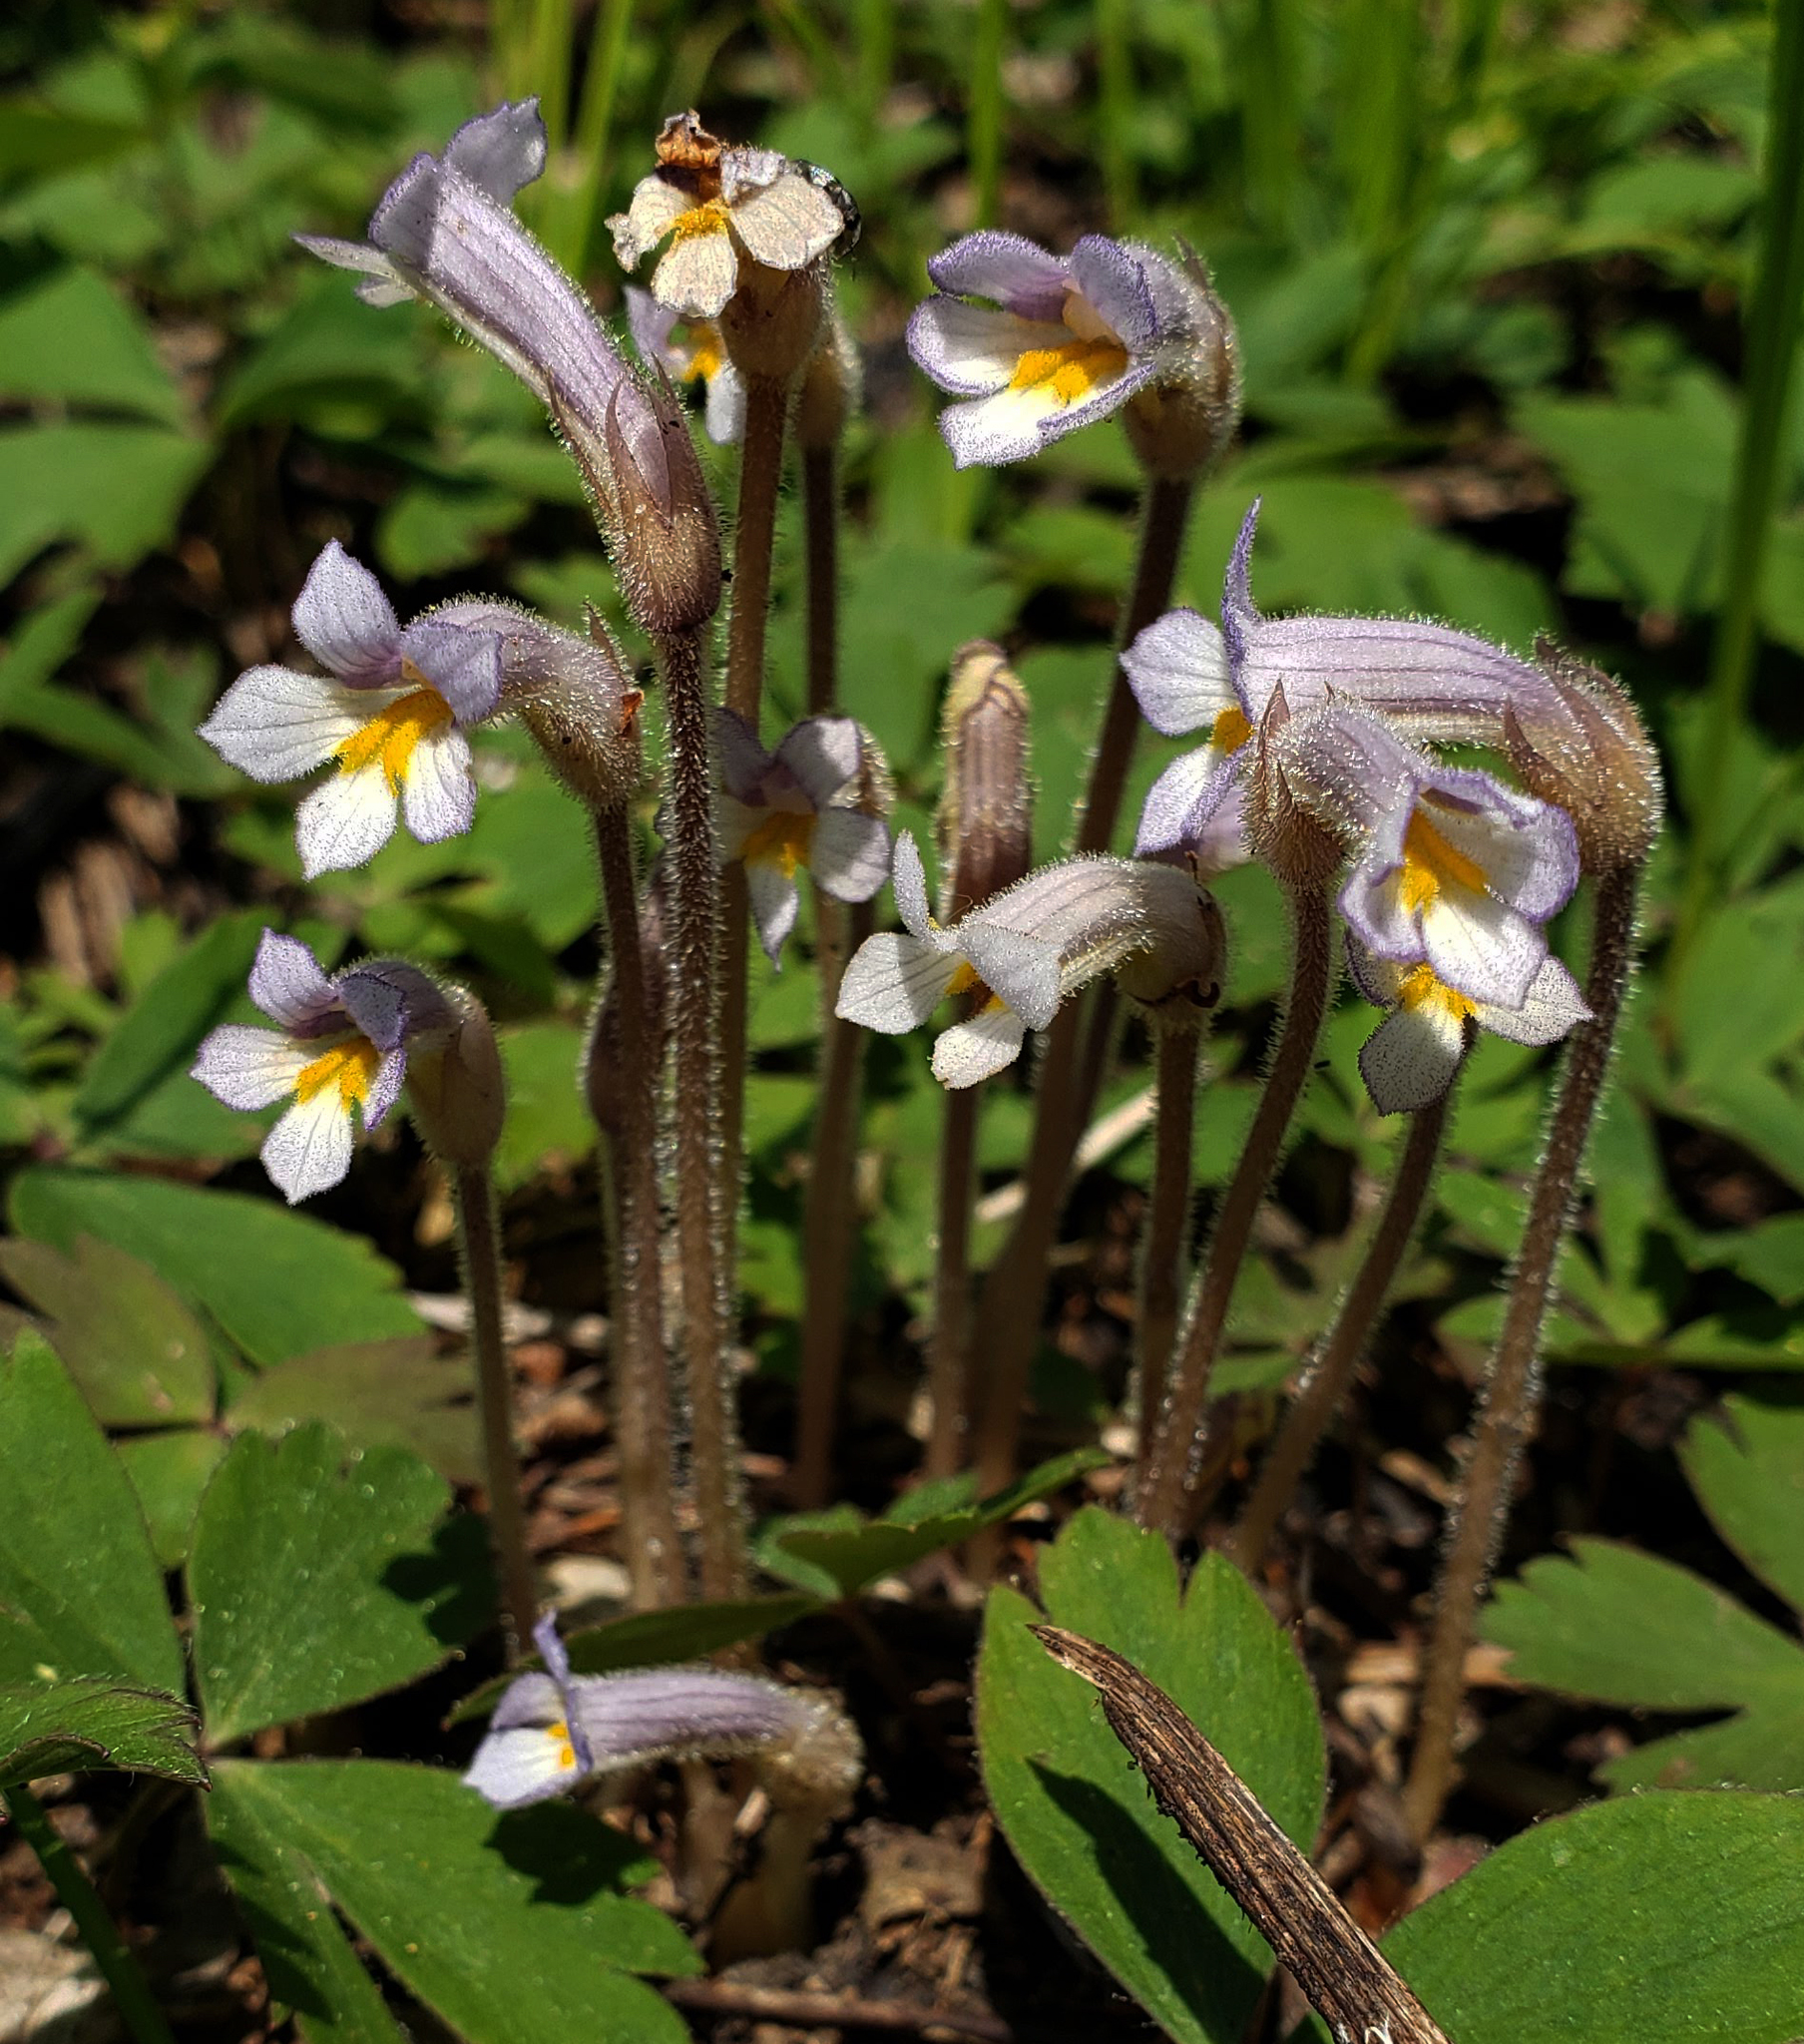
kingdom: Plantae
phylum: Tracheophyta
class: Magnoliopsida
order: Lamiales
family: Orobanchaceae
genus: Aphyllon
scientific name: Aphyllon uniflorum
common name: One-flowered broomrape
